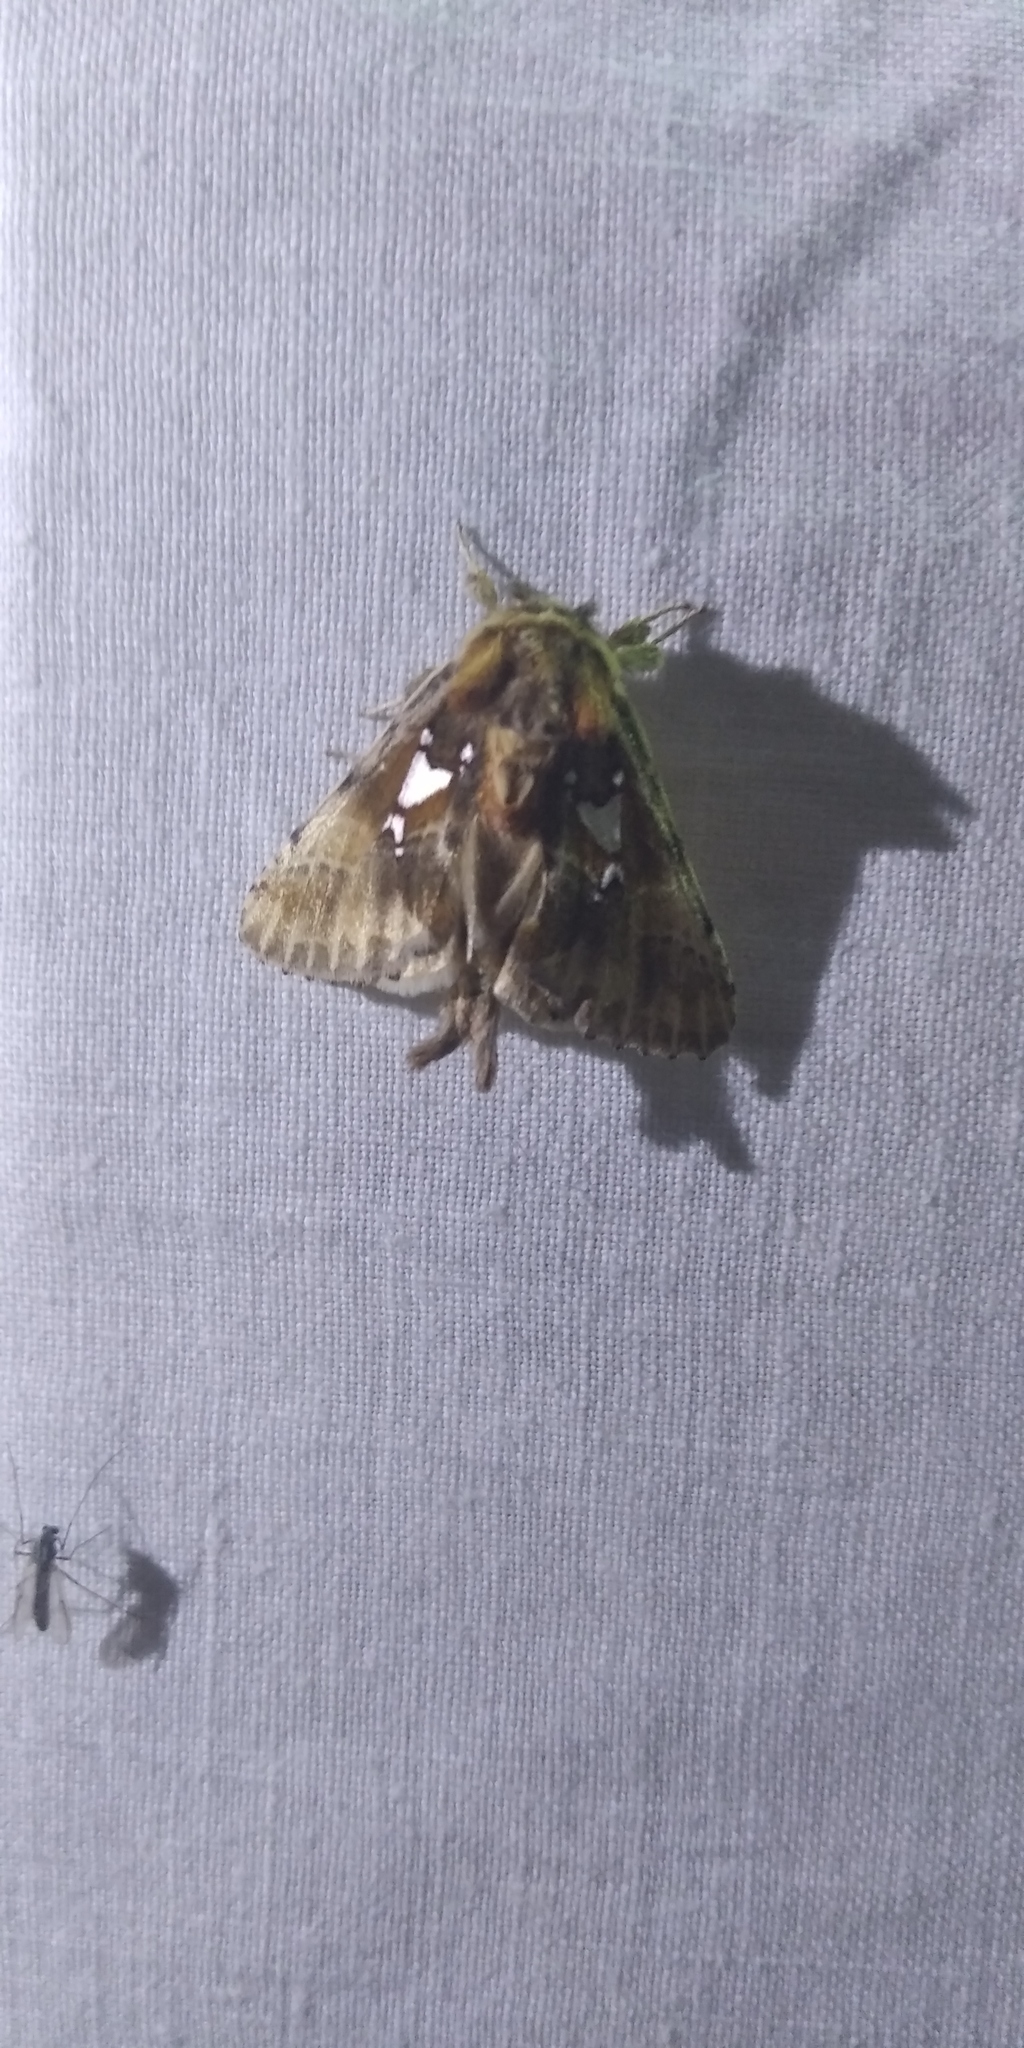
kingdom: Animalia
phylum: Arthropoda
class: Insecta
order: Lepidoptera
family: Notodontidae
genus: Spatalia
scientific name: Spatalia argentina
